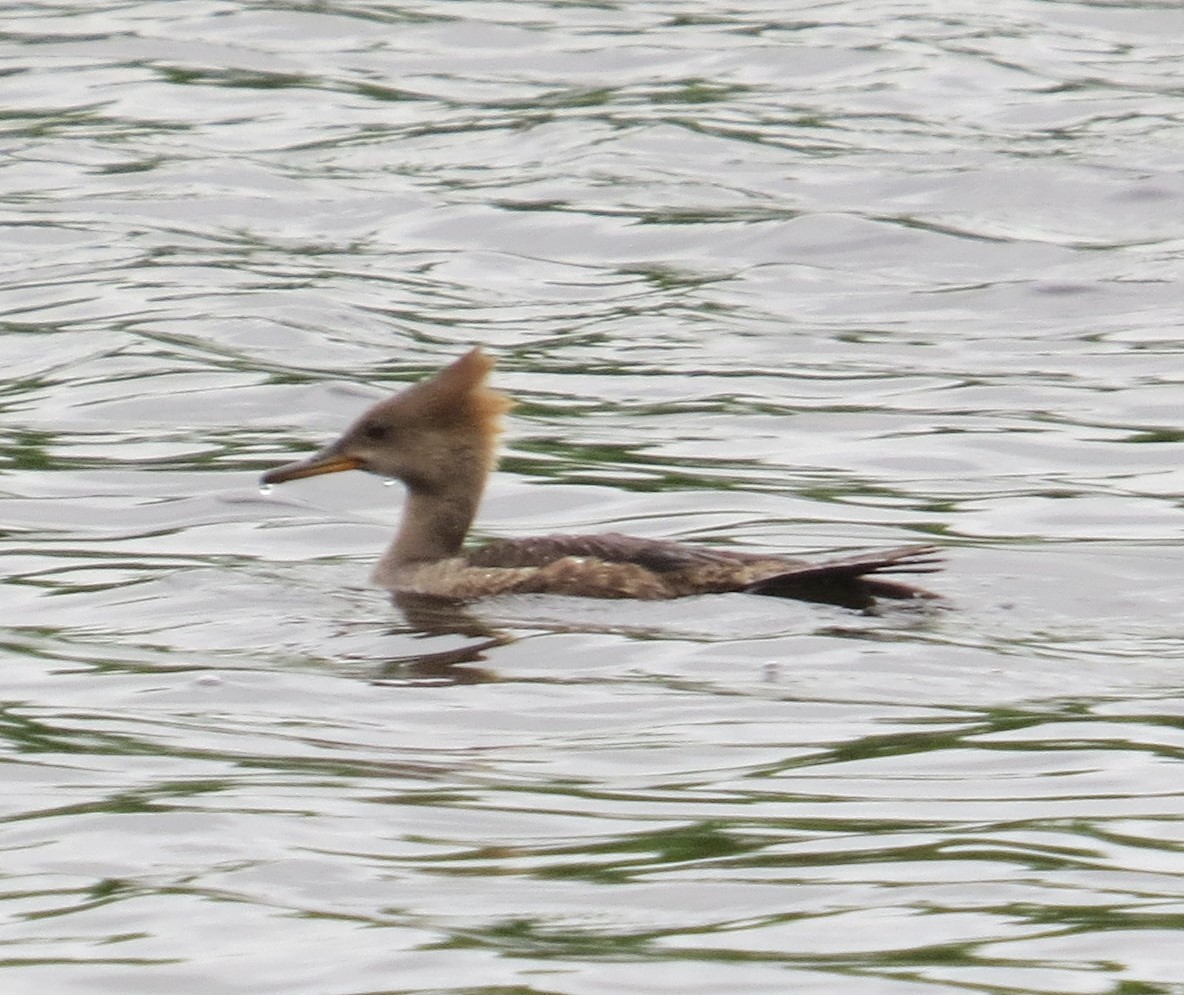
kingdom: Animalia
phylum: Chordata
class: Aves
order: Anseriformes
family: Anatidae
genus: Lophodytes
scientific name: Lophodytes cucullatus
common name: Hooded merganser
